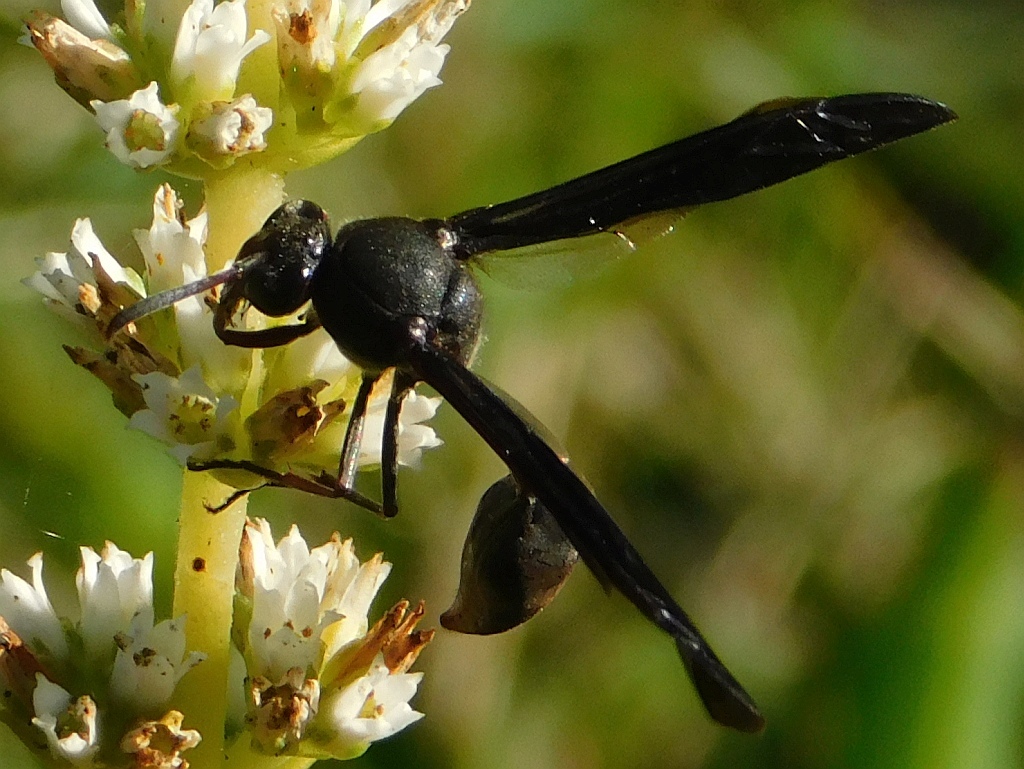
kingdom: Animalia
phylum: Arthropoda
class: Insecta
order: Hymenoptera
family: Eumenidae
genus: Delta
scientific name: Delta emarginatum
